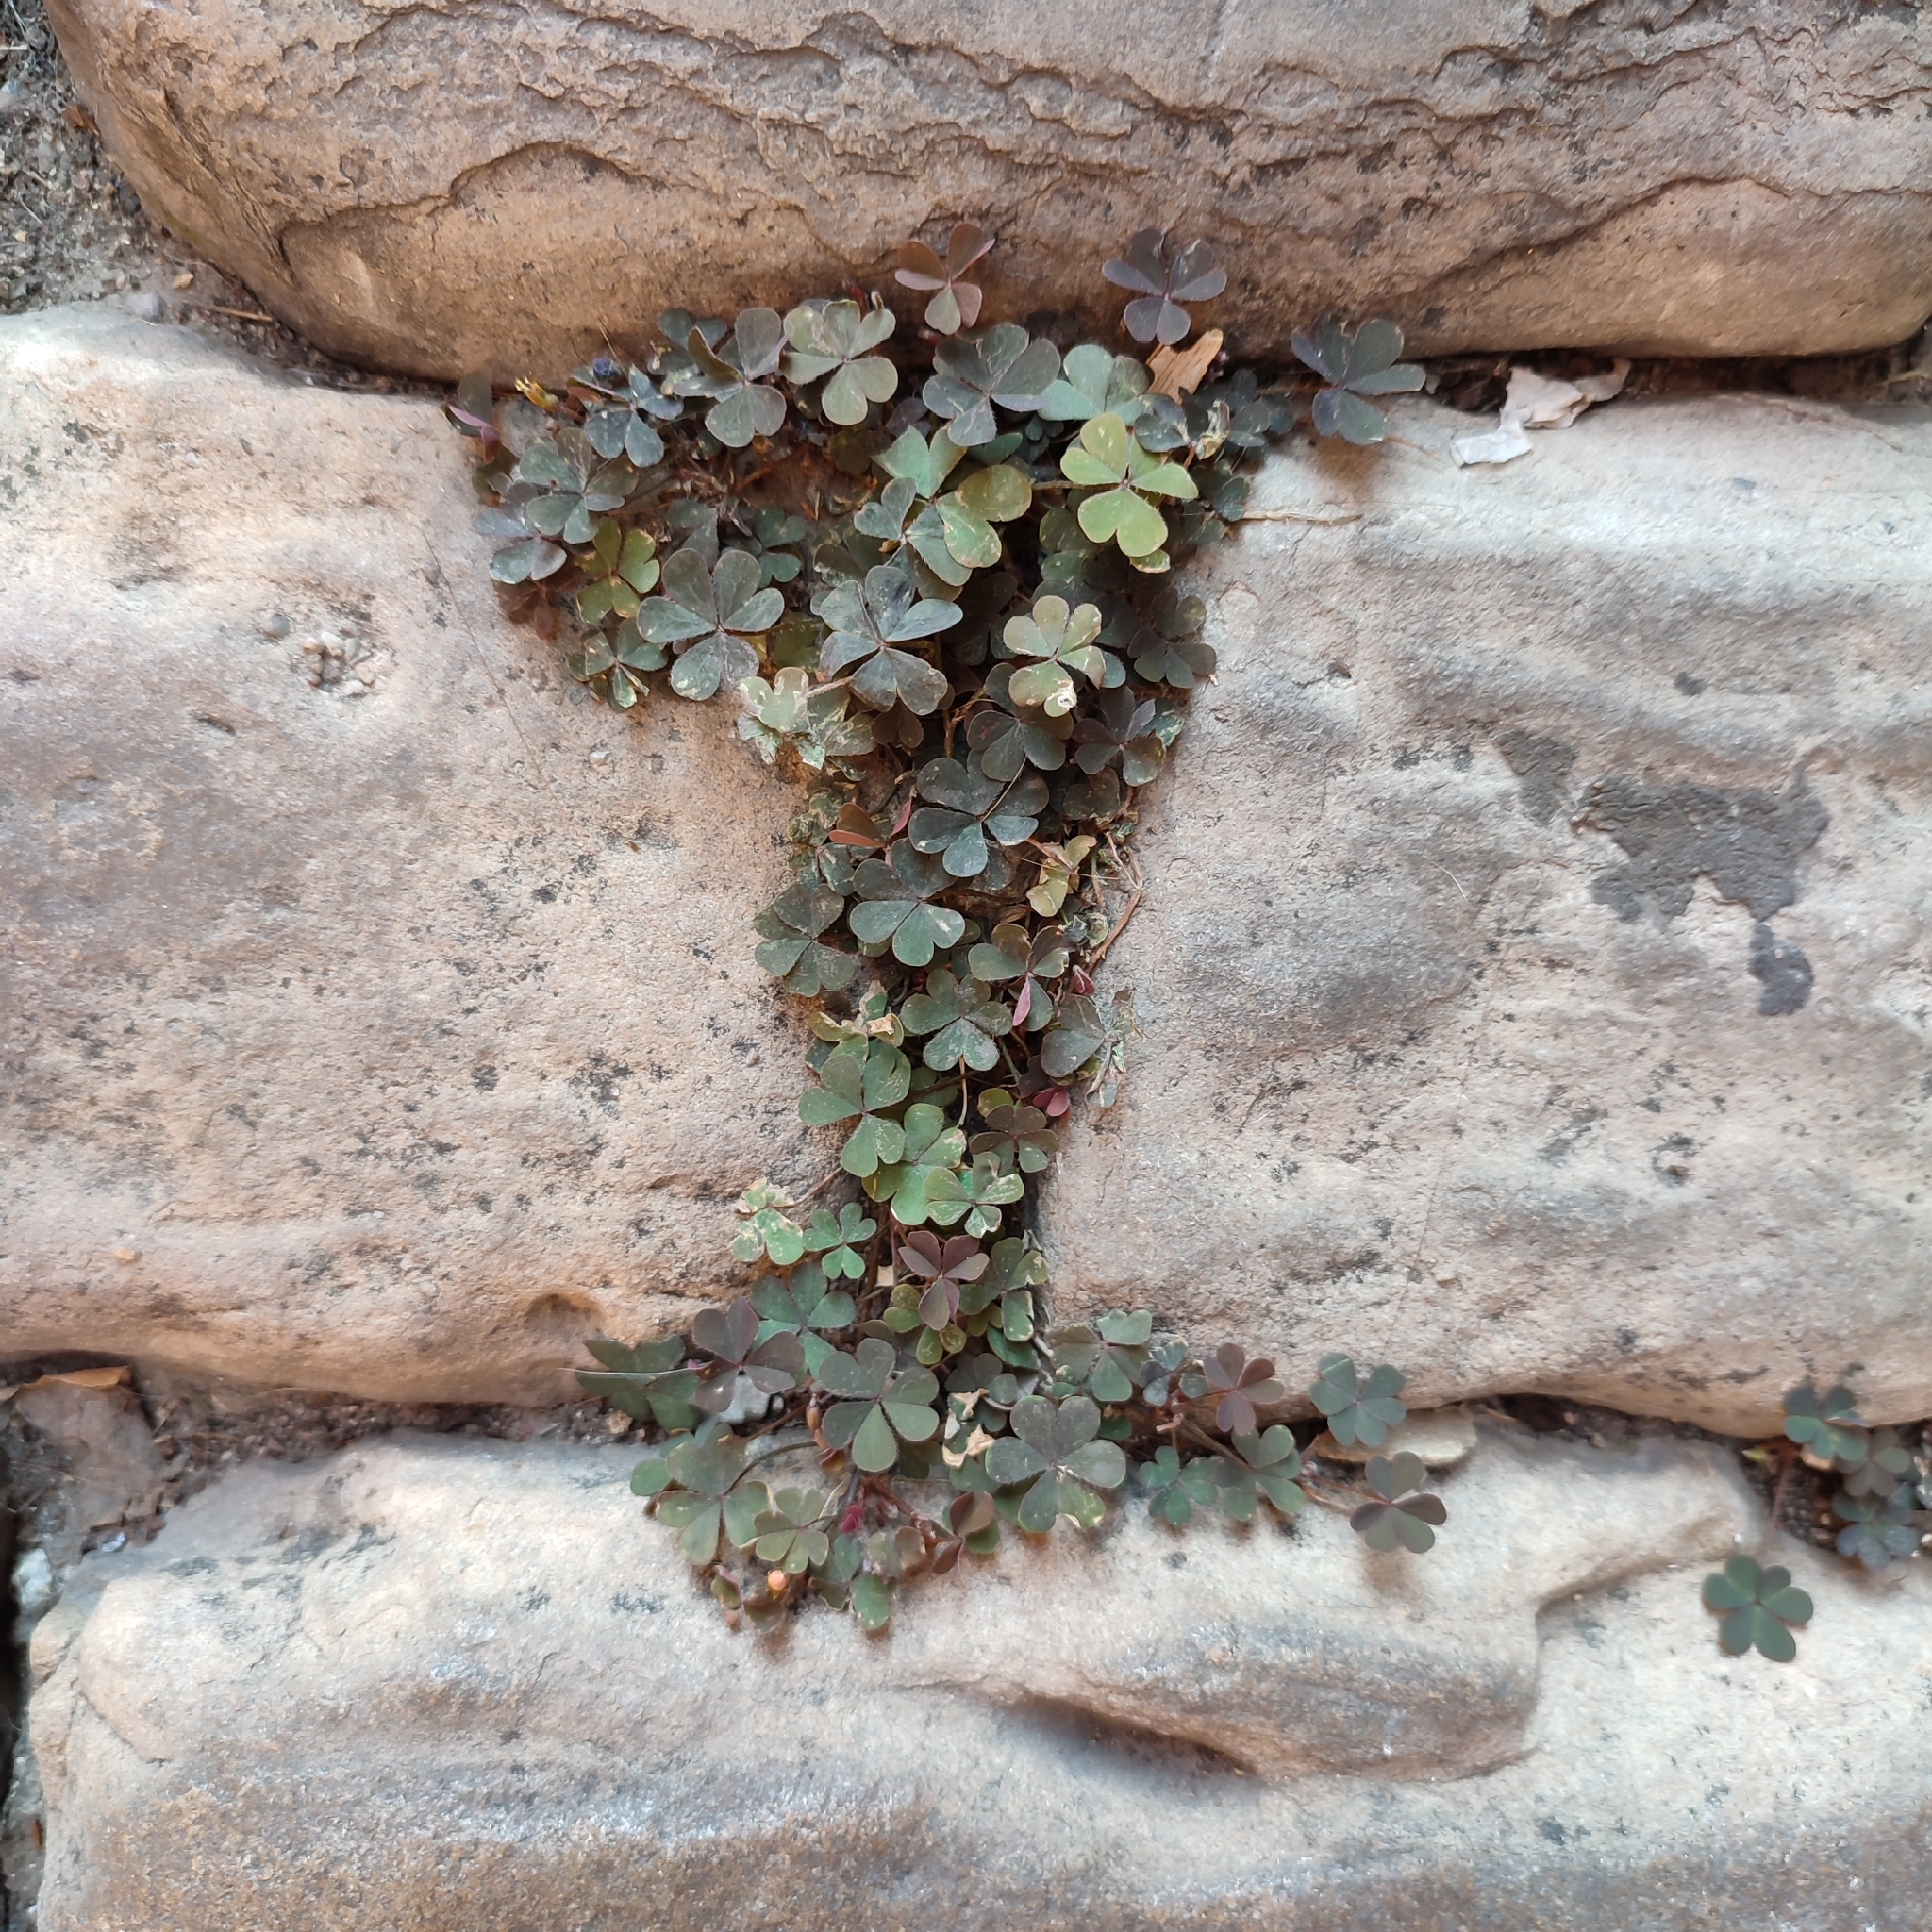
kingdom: Plantae
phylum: Tracheophyta
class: Magnoliopsida
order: Oxalidales
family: Oxalidaceae
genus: Oxalis
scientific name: Oxalis corniculata
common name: Procumbent yellow-sorrel
